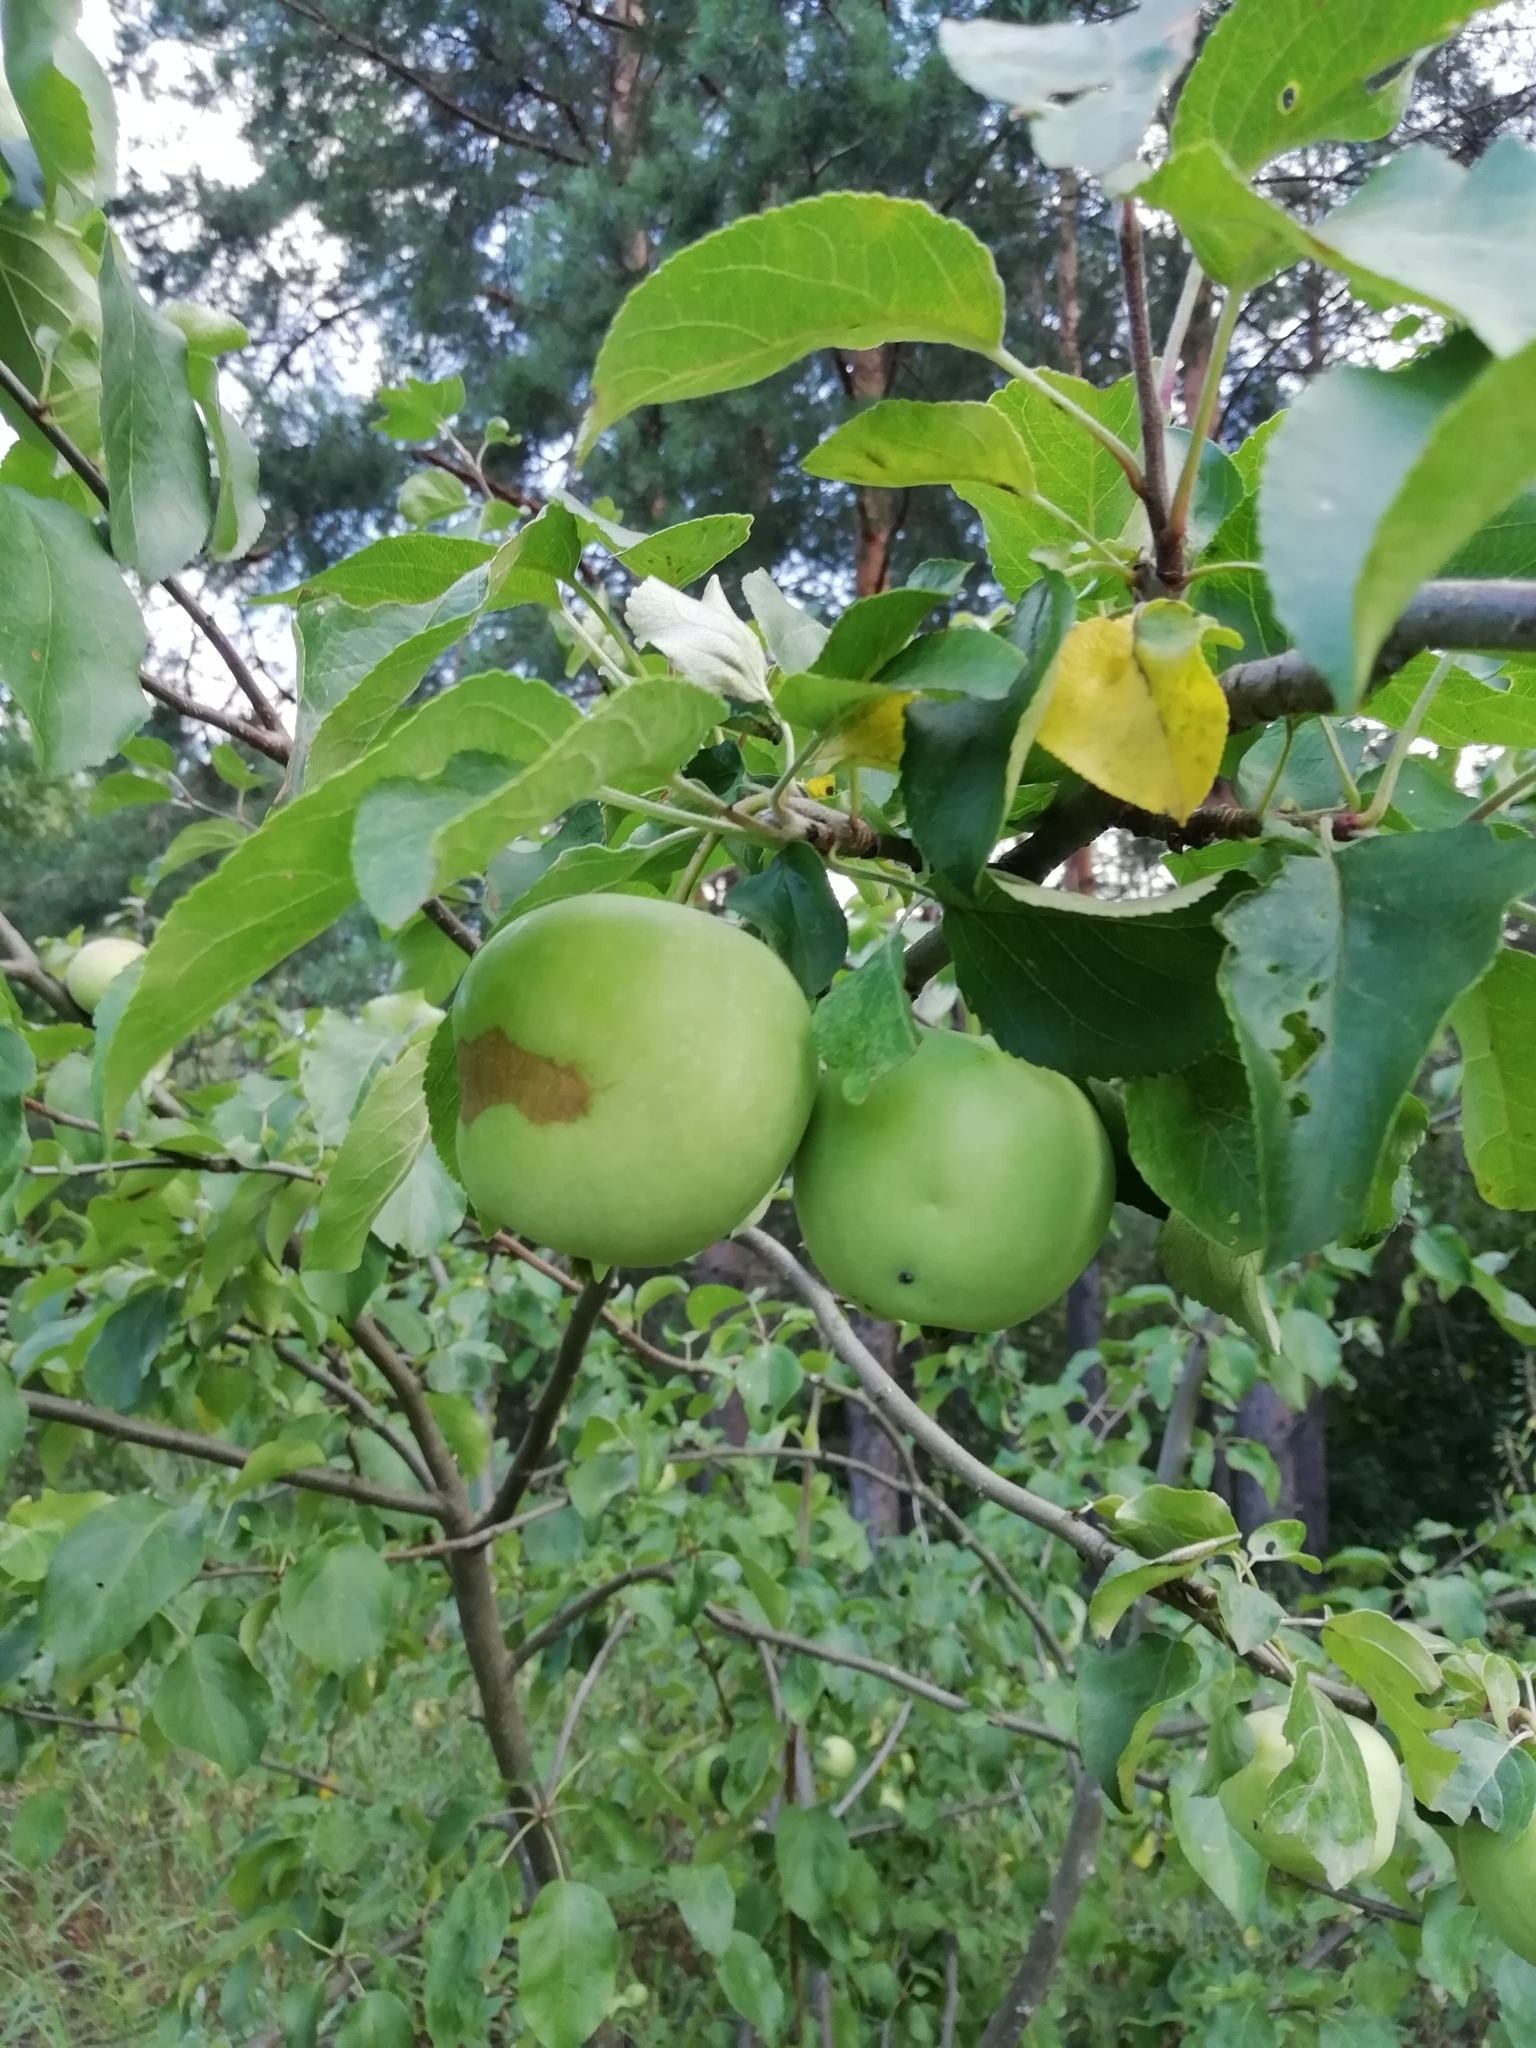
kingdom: Plantae
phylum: Tracheophyta
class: Magnoliopsida
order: Rosales
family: Rosaceae
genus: Malus
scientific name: Malus domestica
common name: Apple
